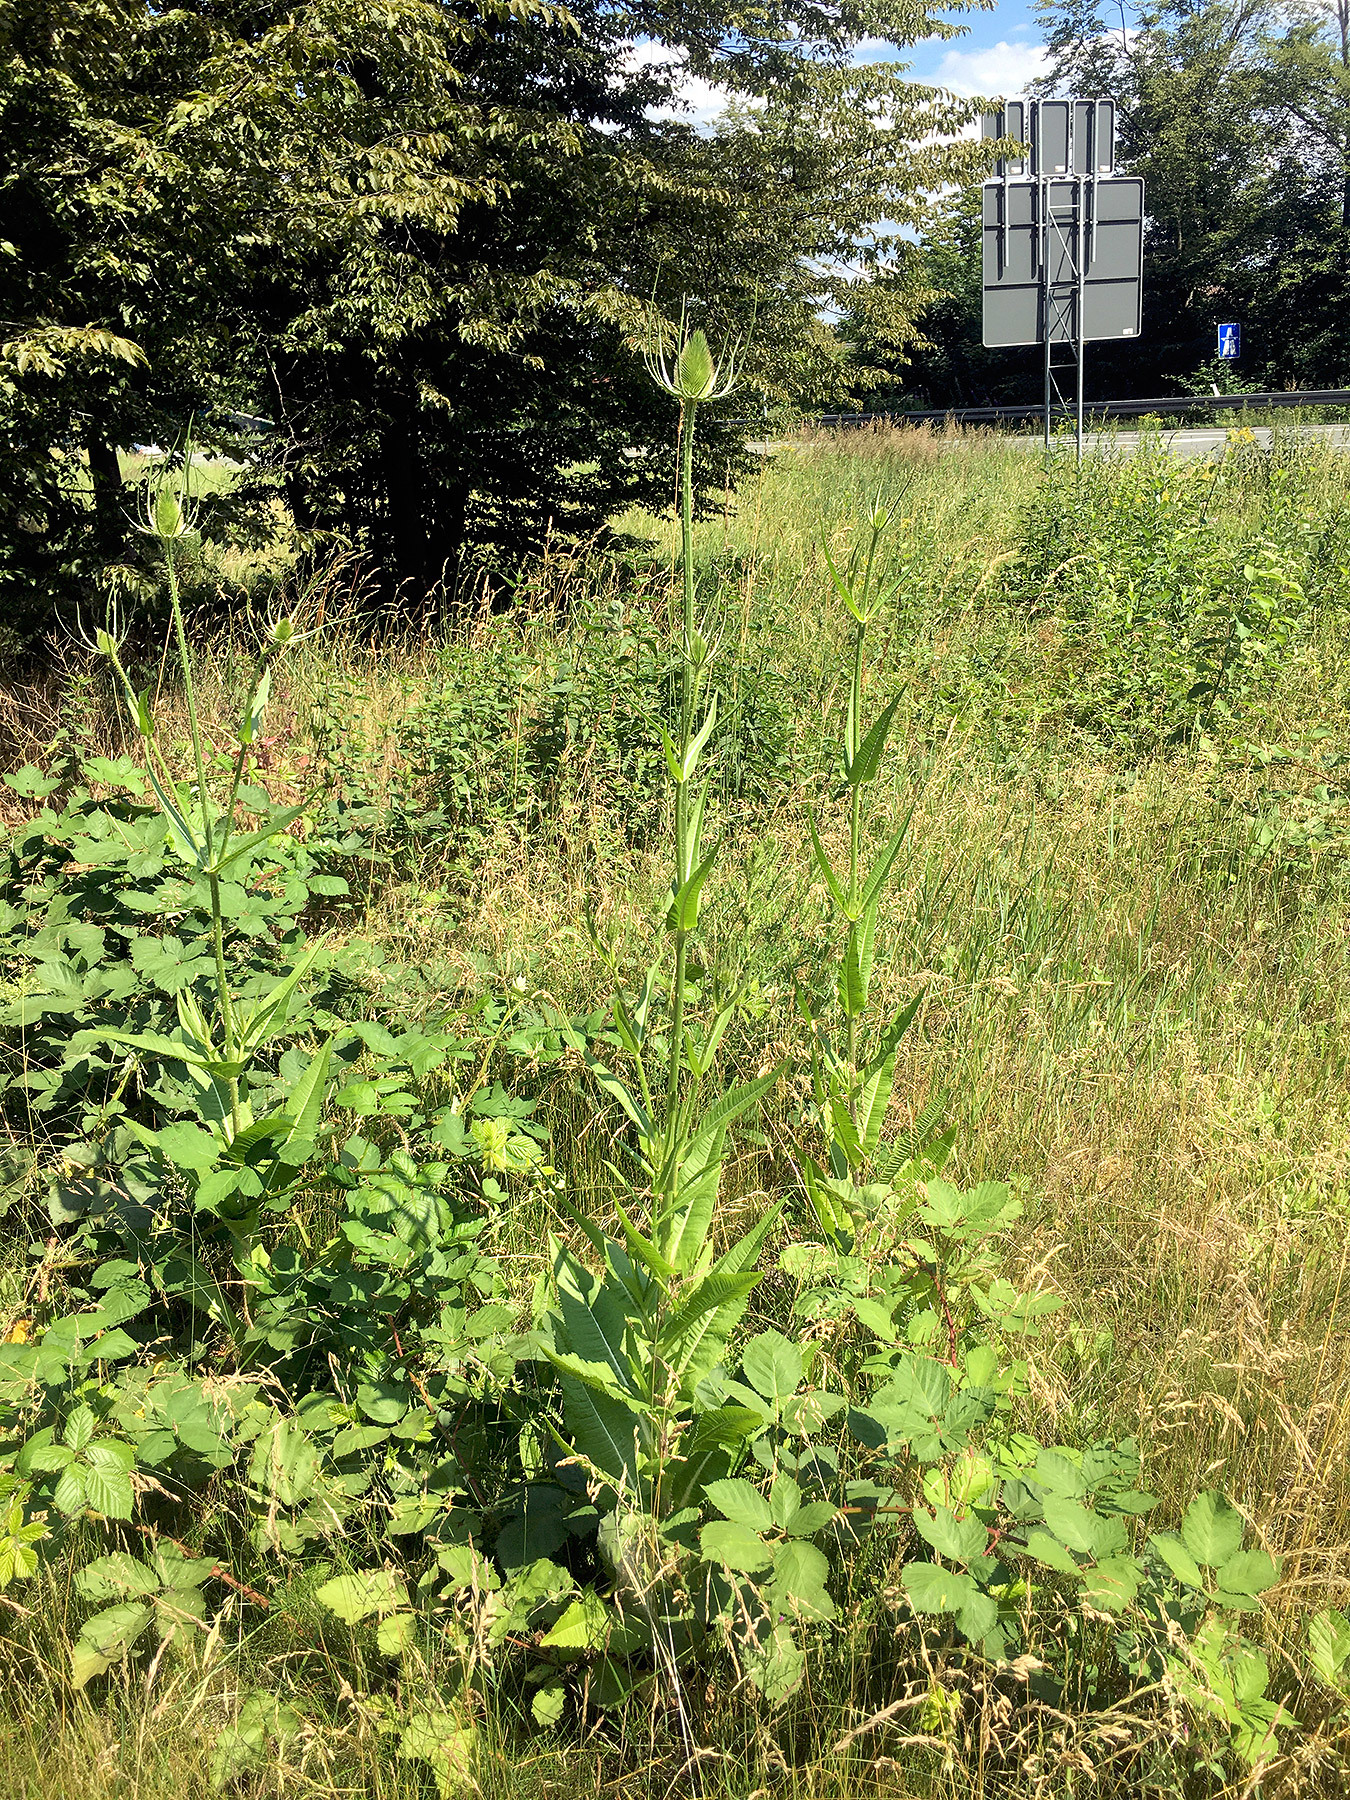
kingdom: Plantae
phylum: Tracheophyta
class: Magnoliopsida
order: Dipsacales
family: Caprifoliaceae
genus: Dipsacus
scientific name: Dipsacus fullonum
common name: Teasel
